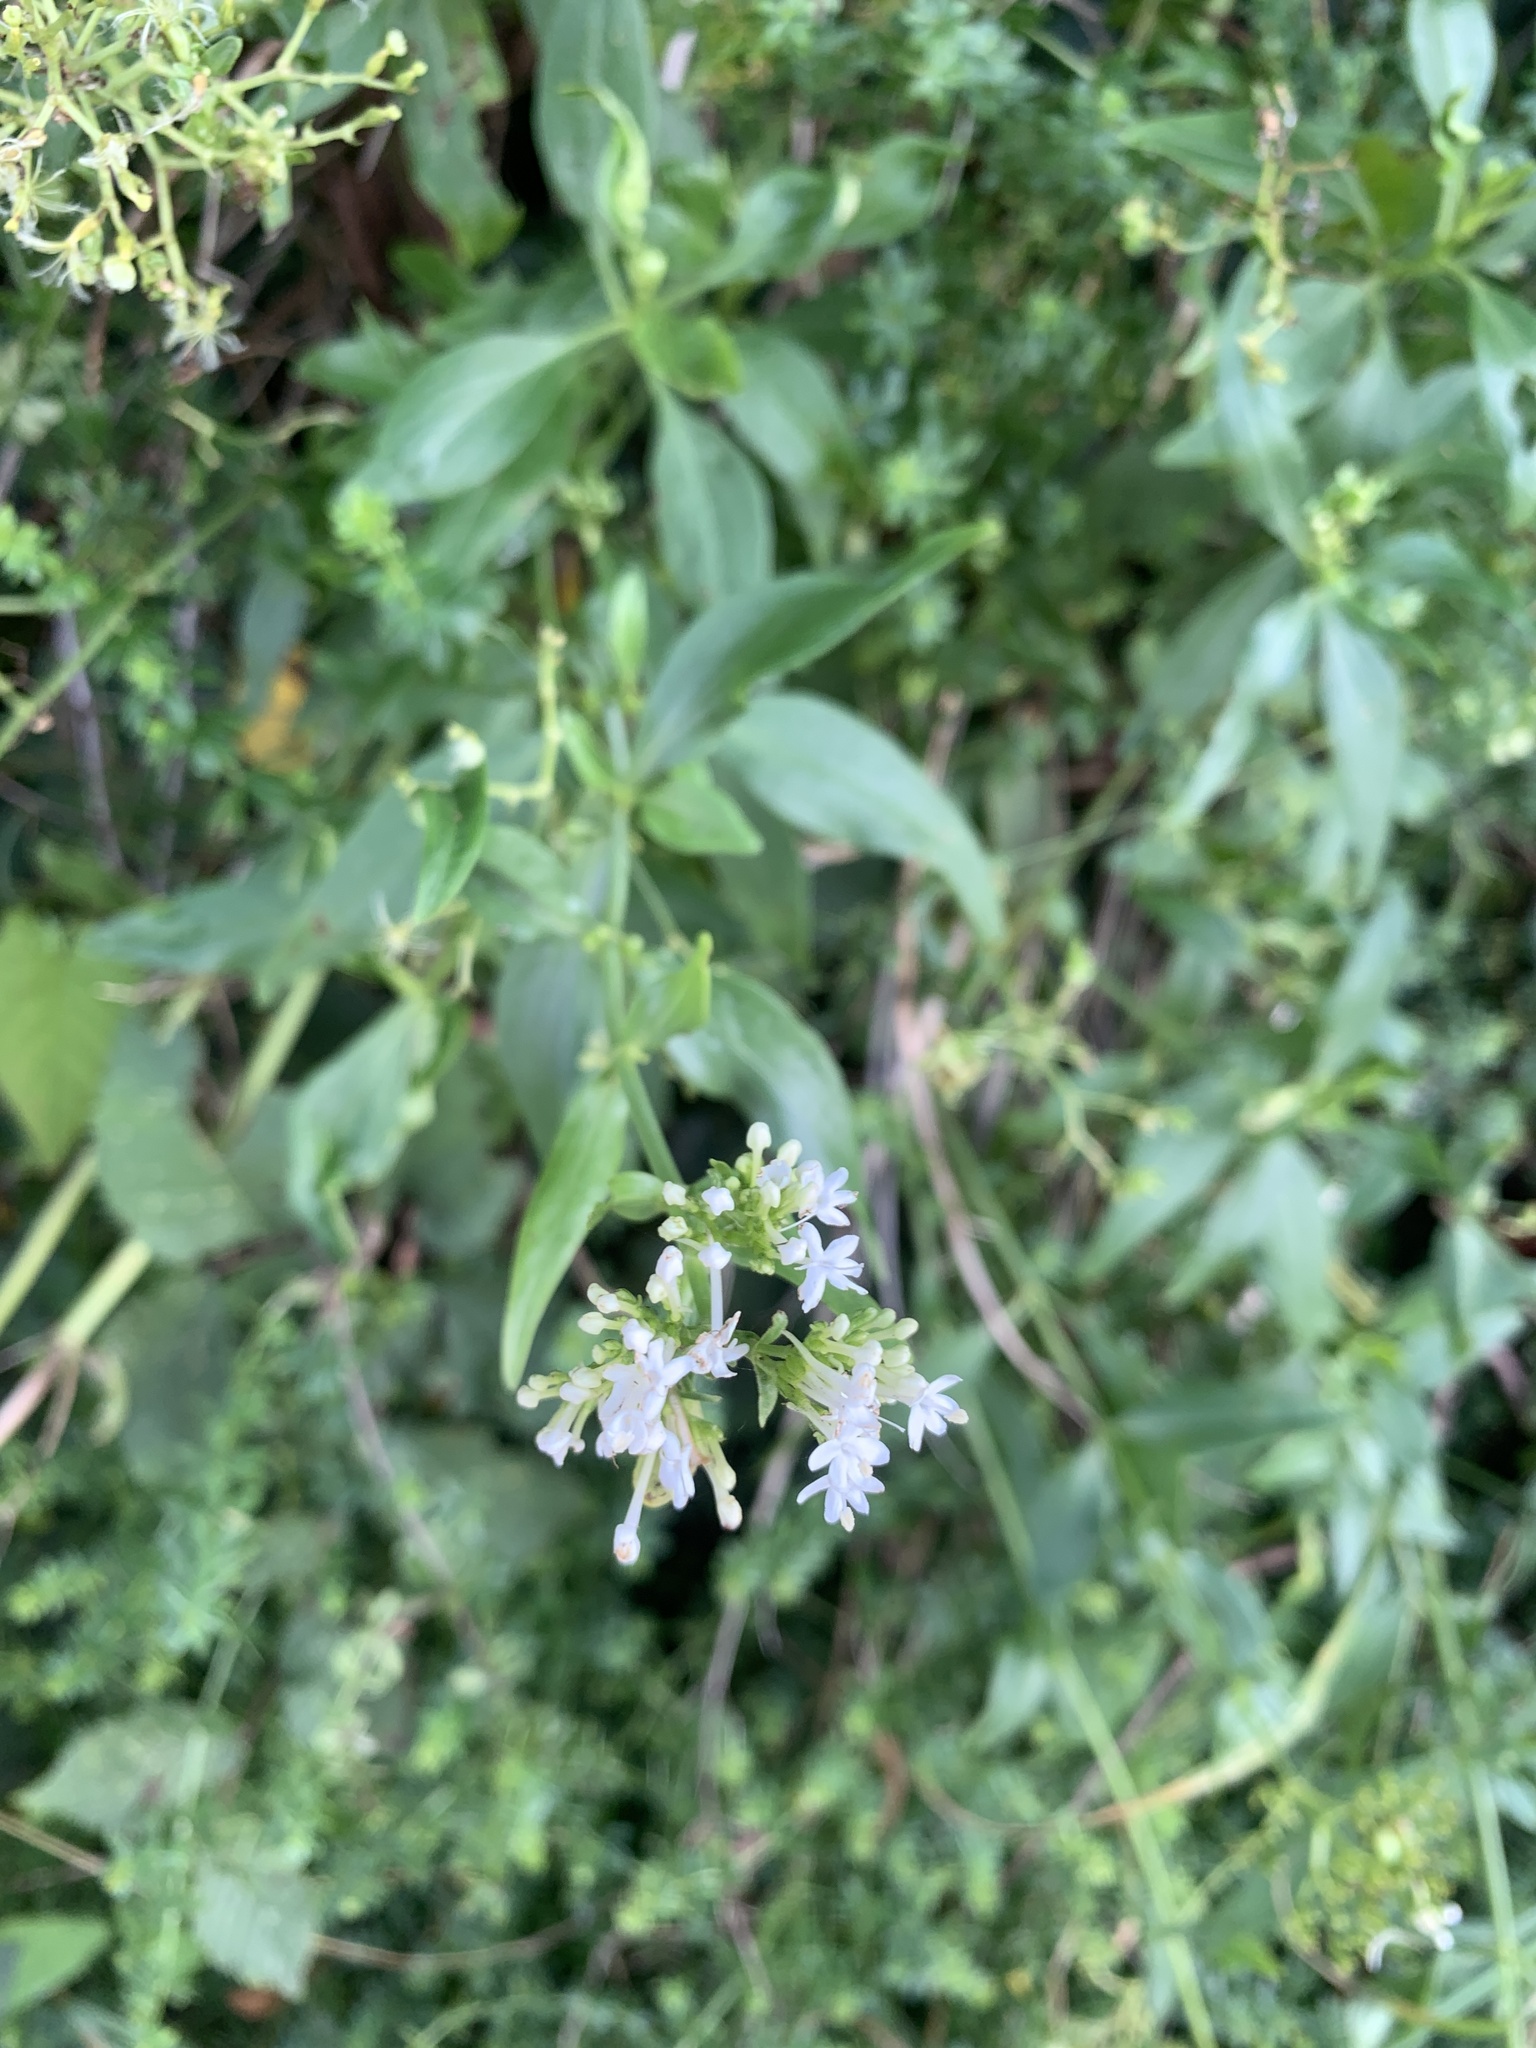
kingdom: Plantae
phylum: Tracheophyta
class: Magnoliopsida
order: Dipsacales
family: Caprifoliaceae
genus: Centranthus
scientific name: Centranthus ruber
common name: Red valerian
